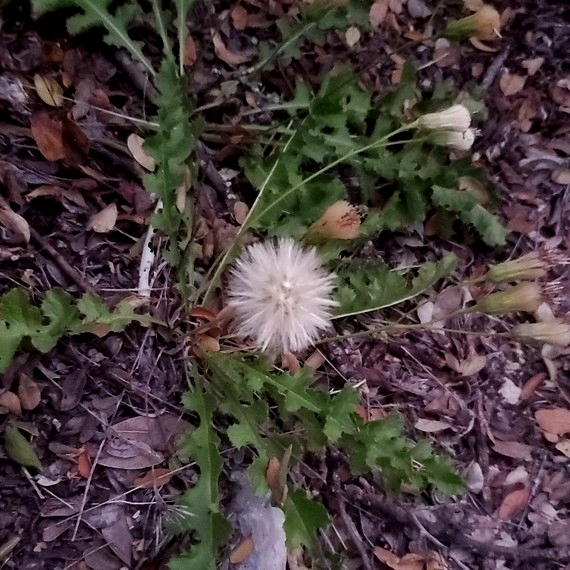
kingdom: Plantae
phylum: Tracheophyta
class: Magnoliopsida
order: Asterales
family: Asteraceae
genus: Acourtia
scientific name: Acourtia runcinata
